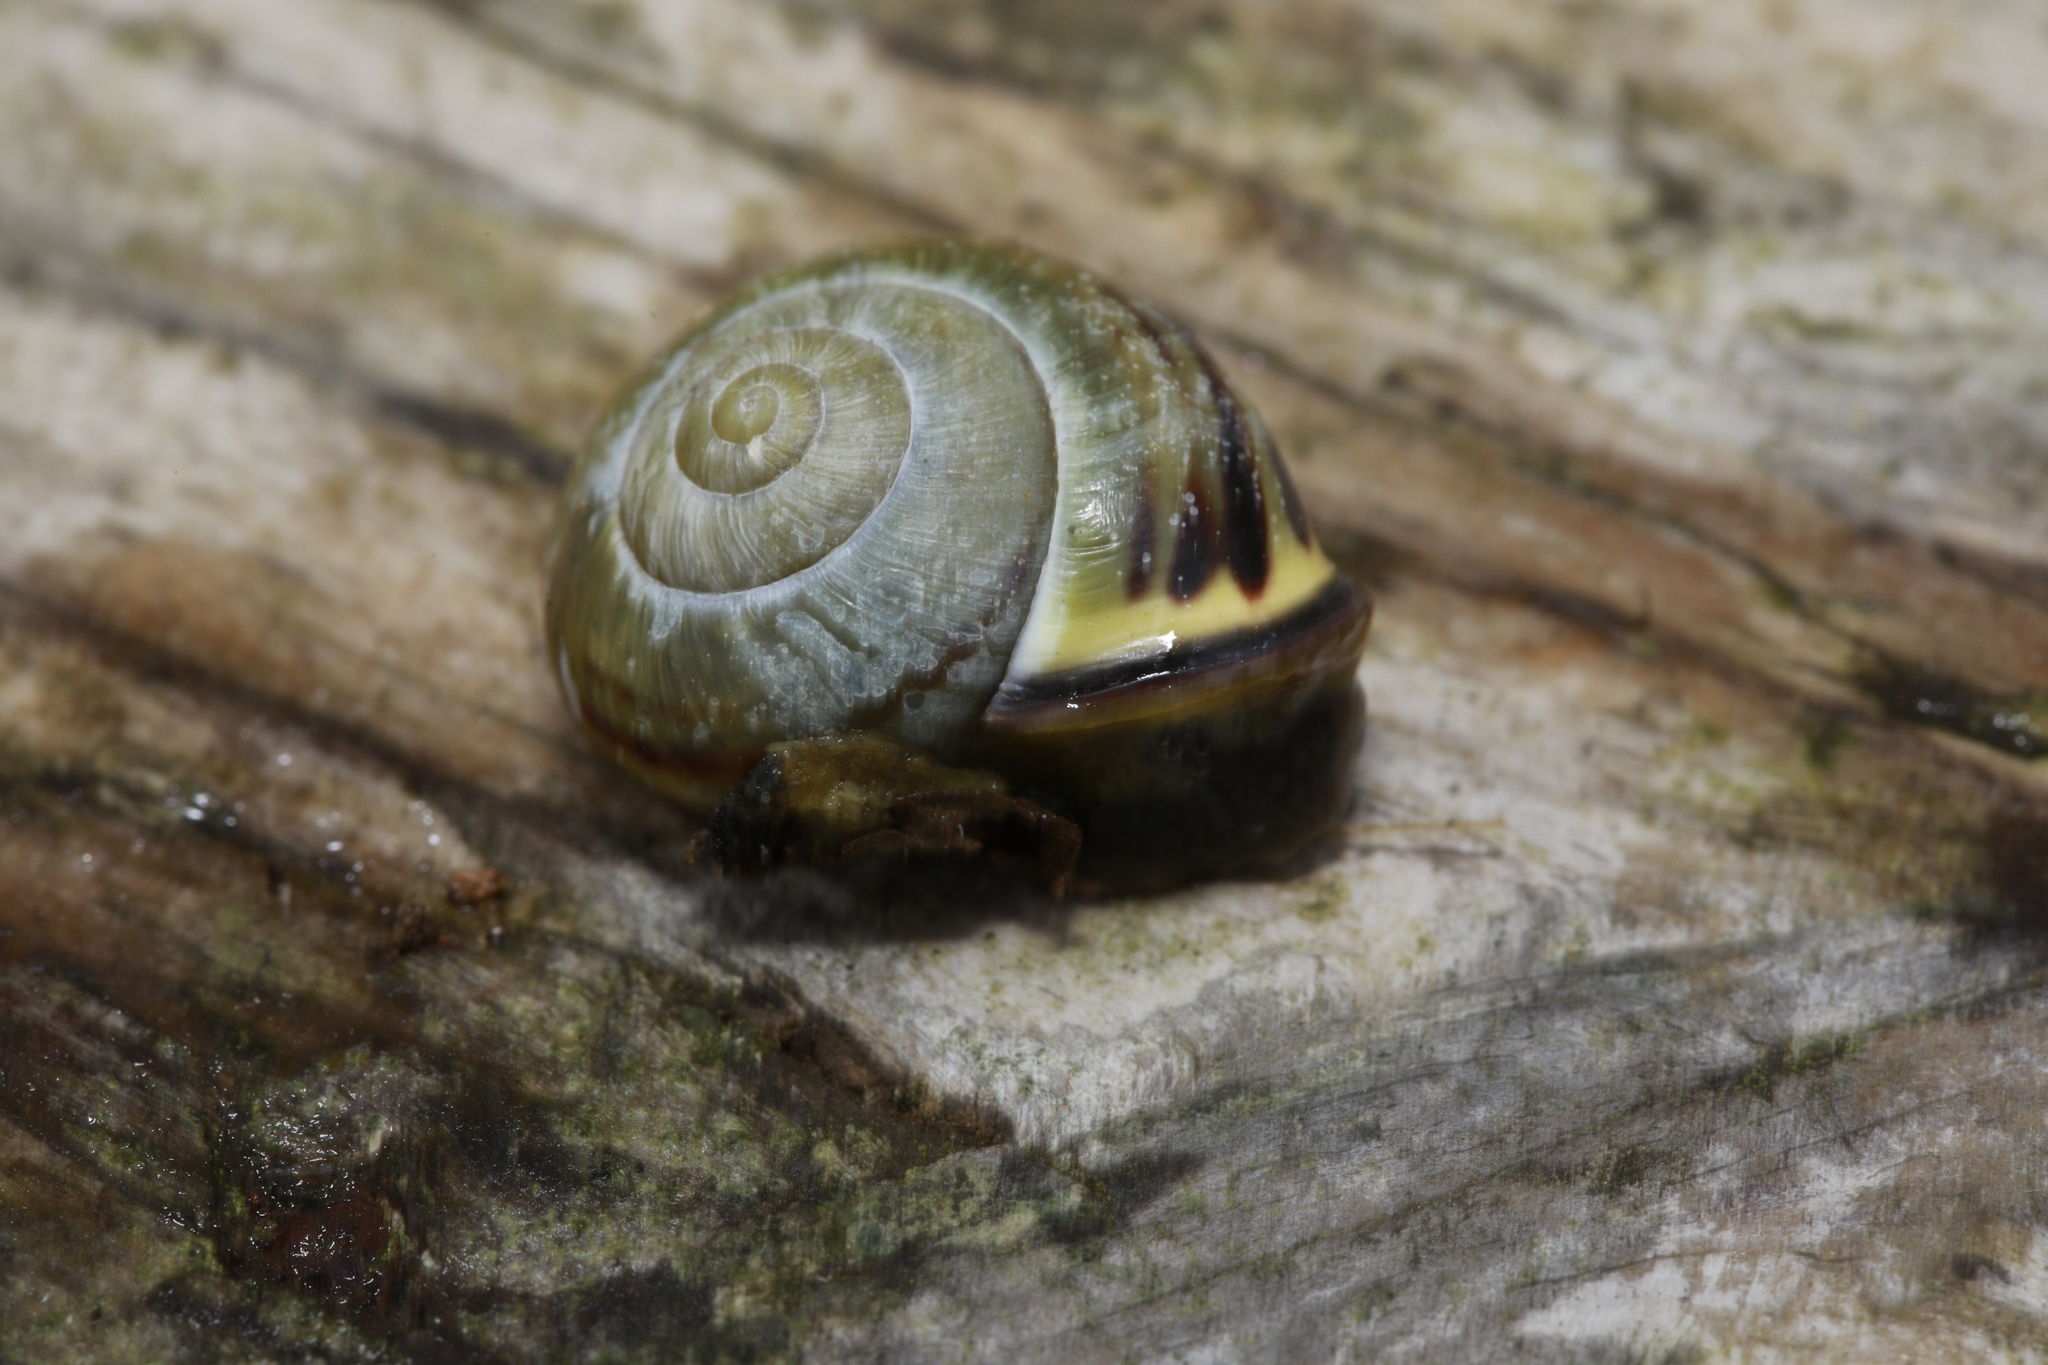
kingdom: Animalia
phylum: Mollusca
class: Gastropoda
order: Stylommatophora
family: Helicidae
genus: Cepaea
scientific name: Cepaea nemoralis
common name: Grovesnail
